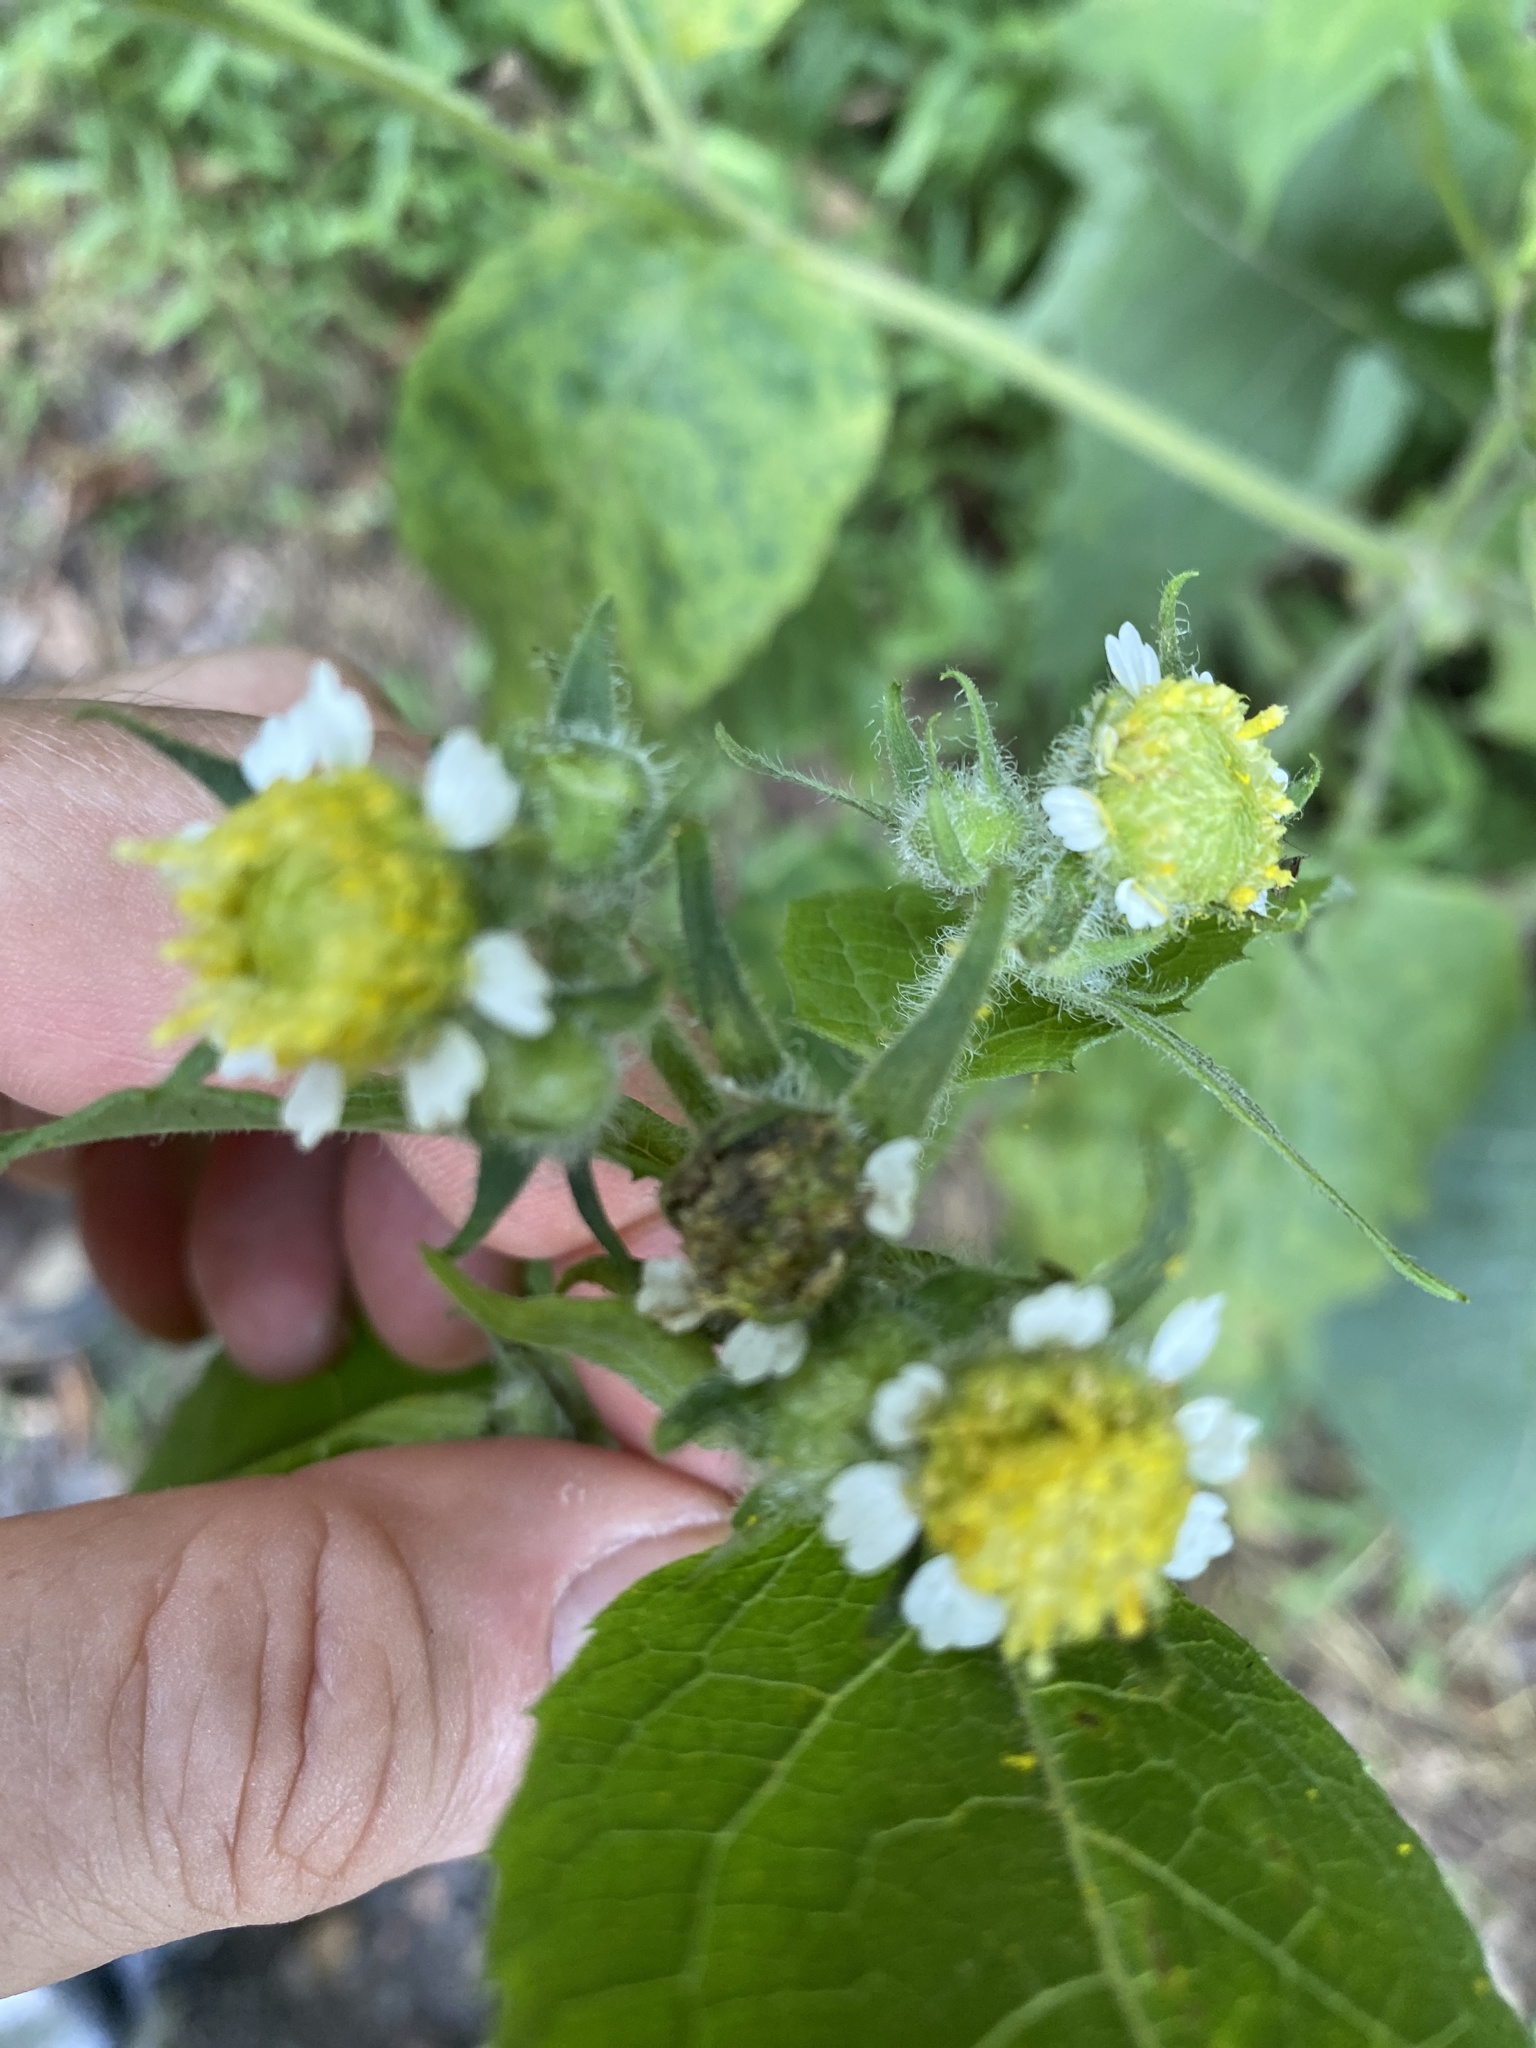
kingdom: Plantae
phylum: Tracheophyta
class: Magnoliopsida
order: Asterales
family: Asteraceae
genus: Polymnia
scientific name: Polymnia canadensis
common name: Pale-flowered leafcup
